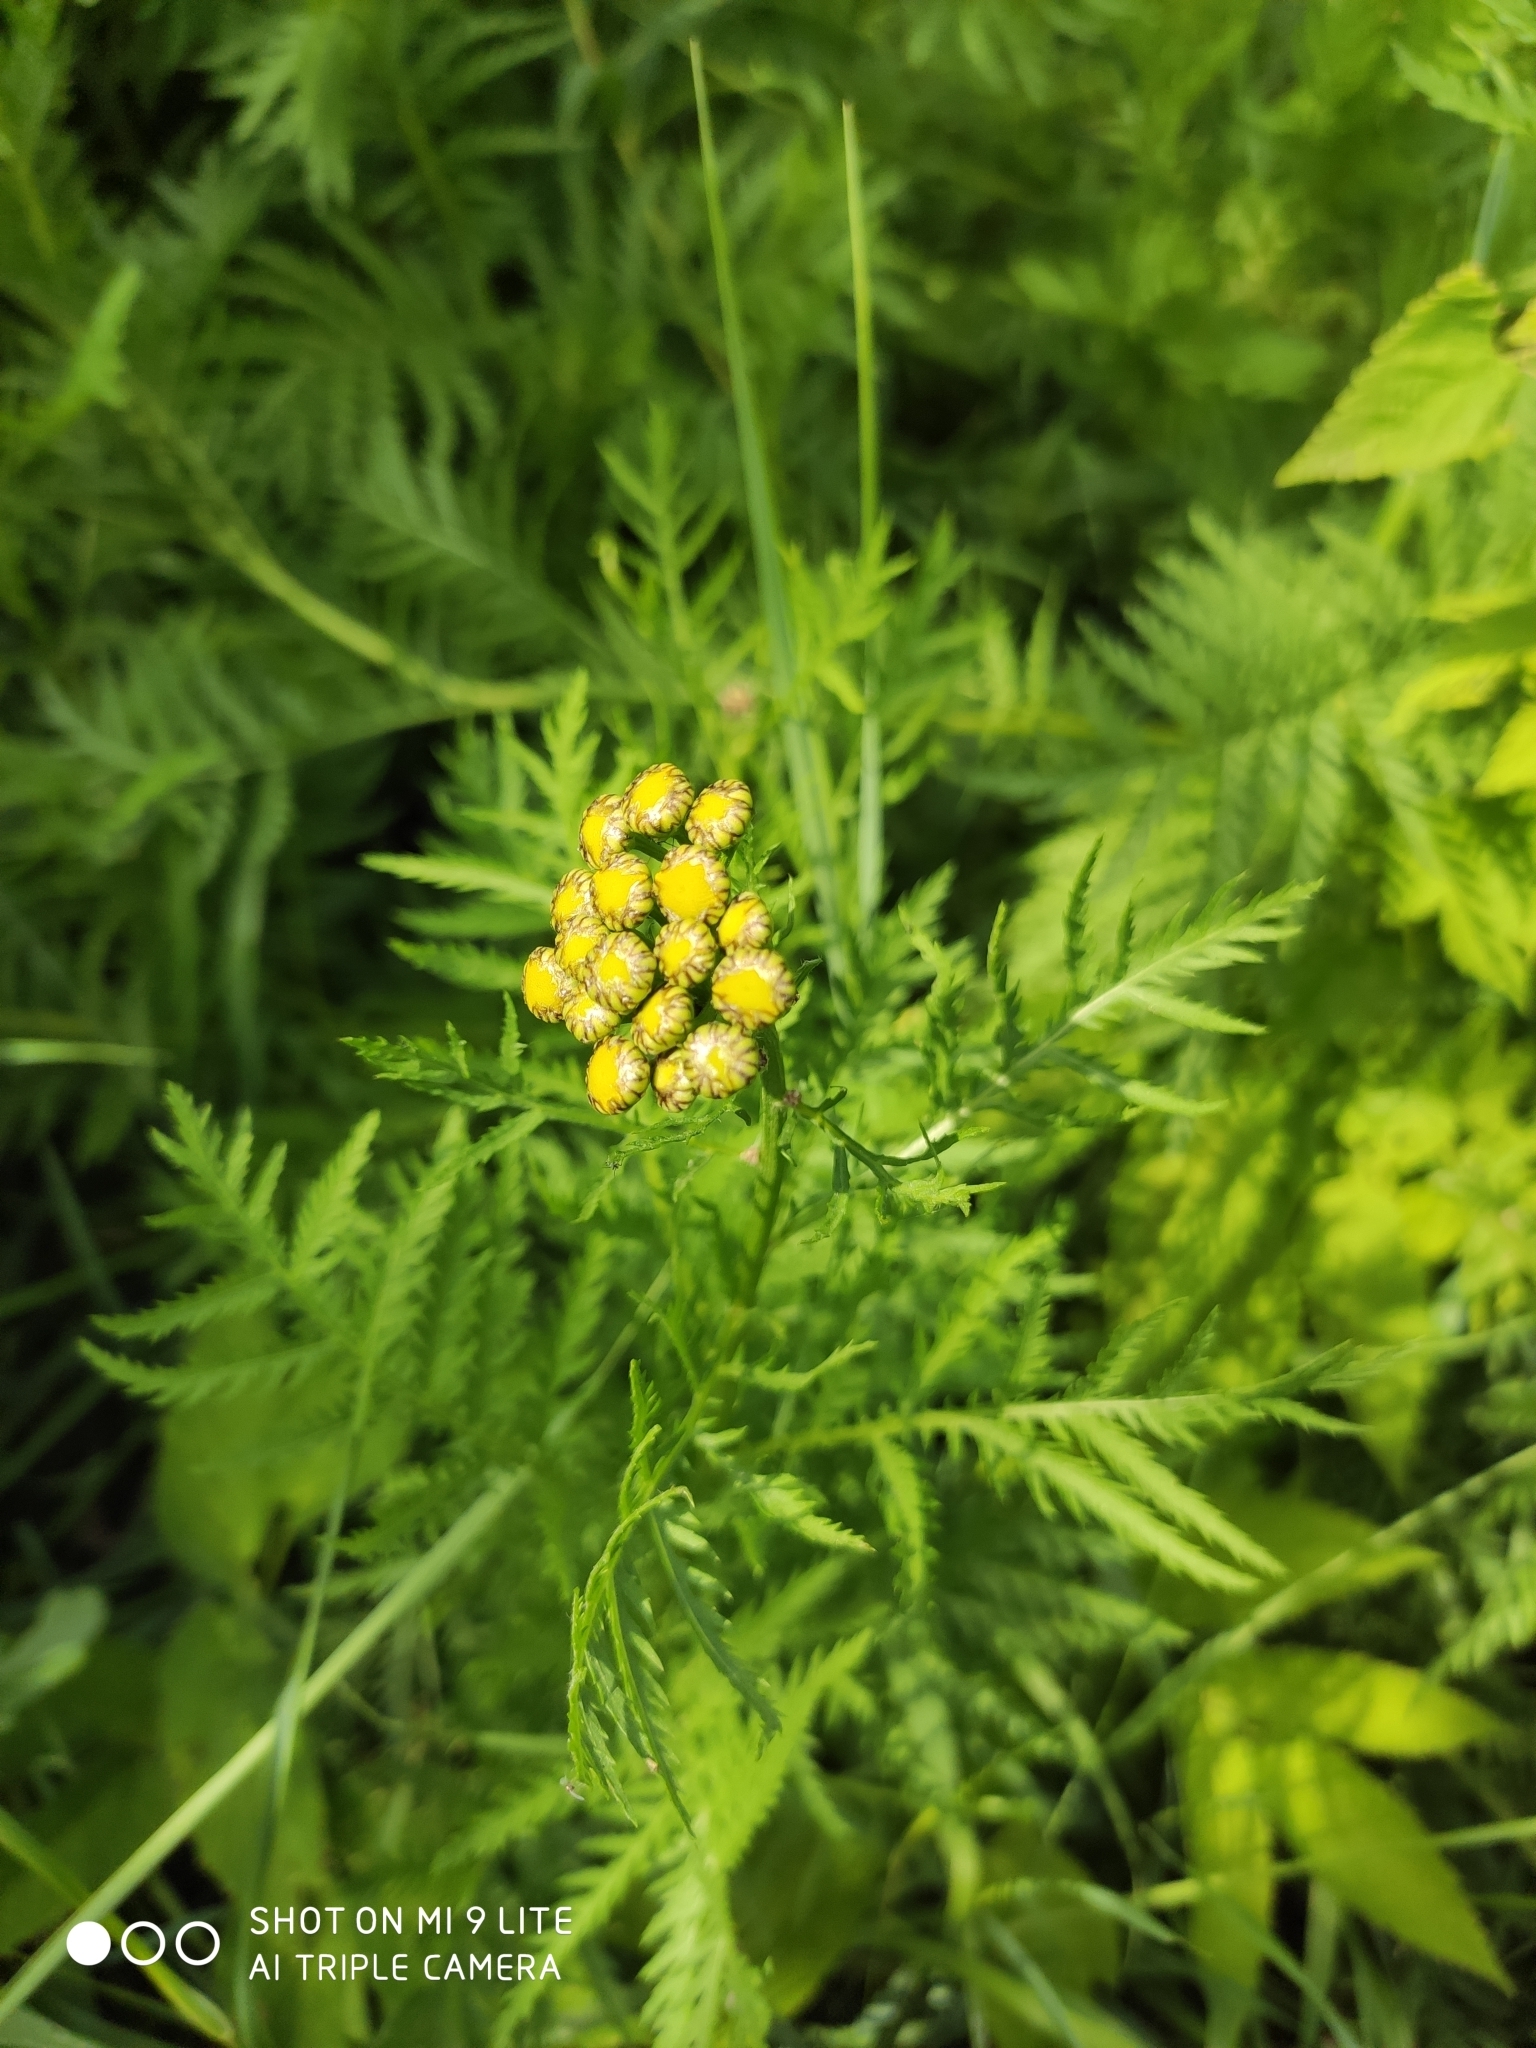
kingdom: Plantae
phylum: Tracheophyta
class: Magnoliopsida
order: Asterales
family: Asteraceae
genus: Tanacetum
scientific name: Tanacetum vulgare
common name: Common tansy
